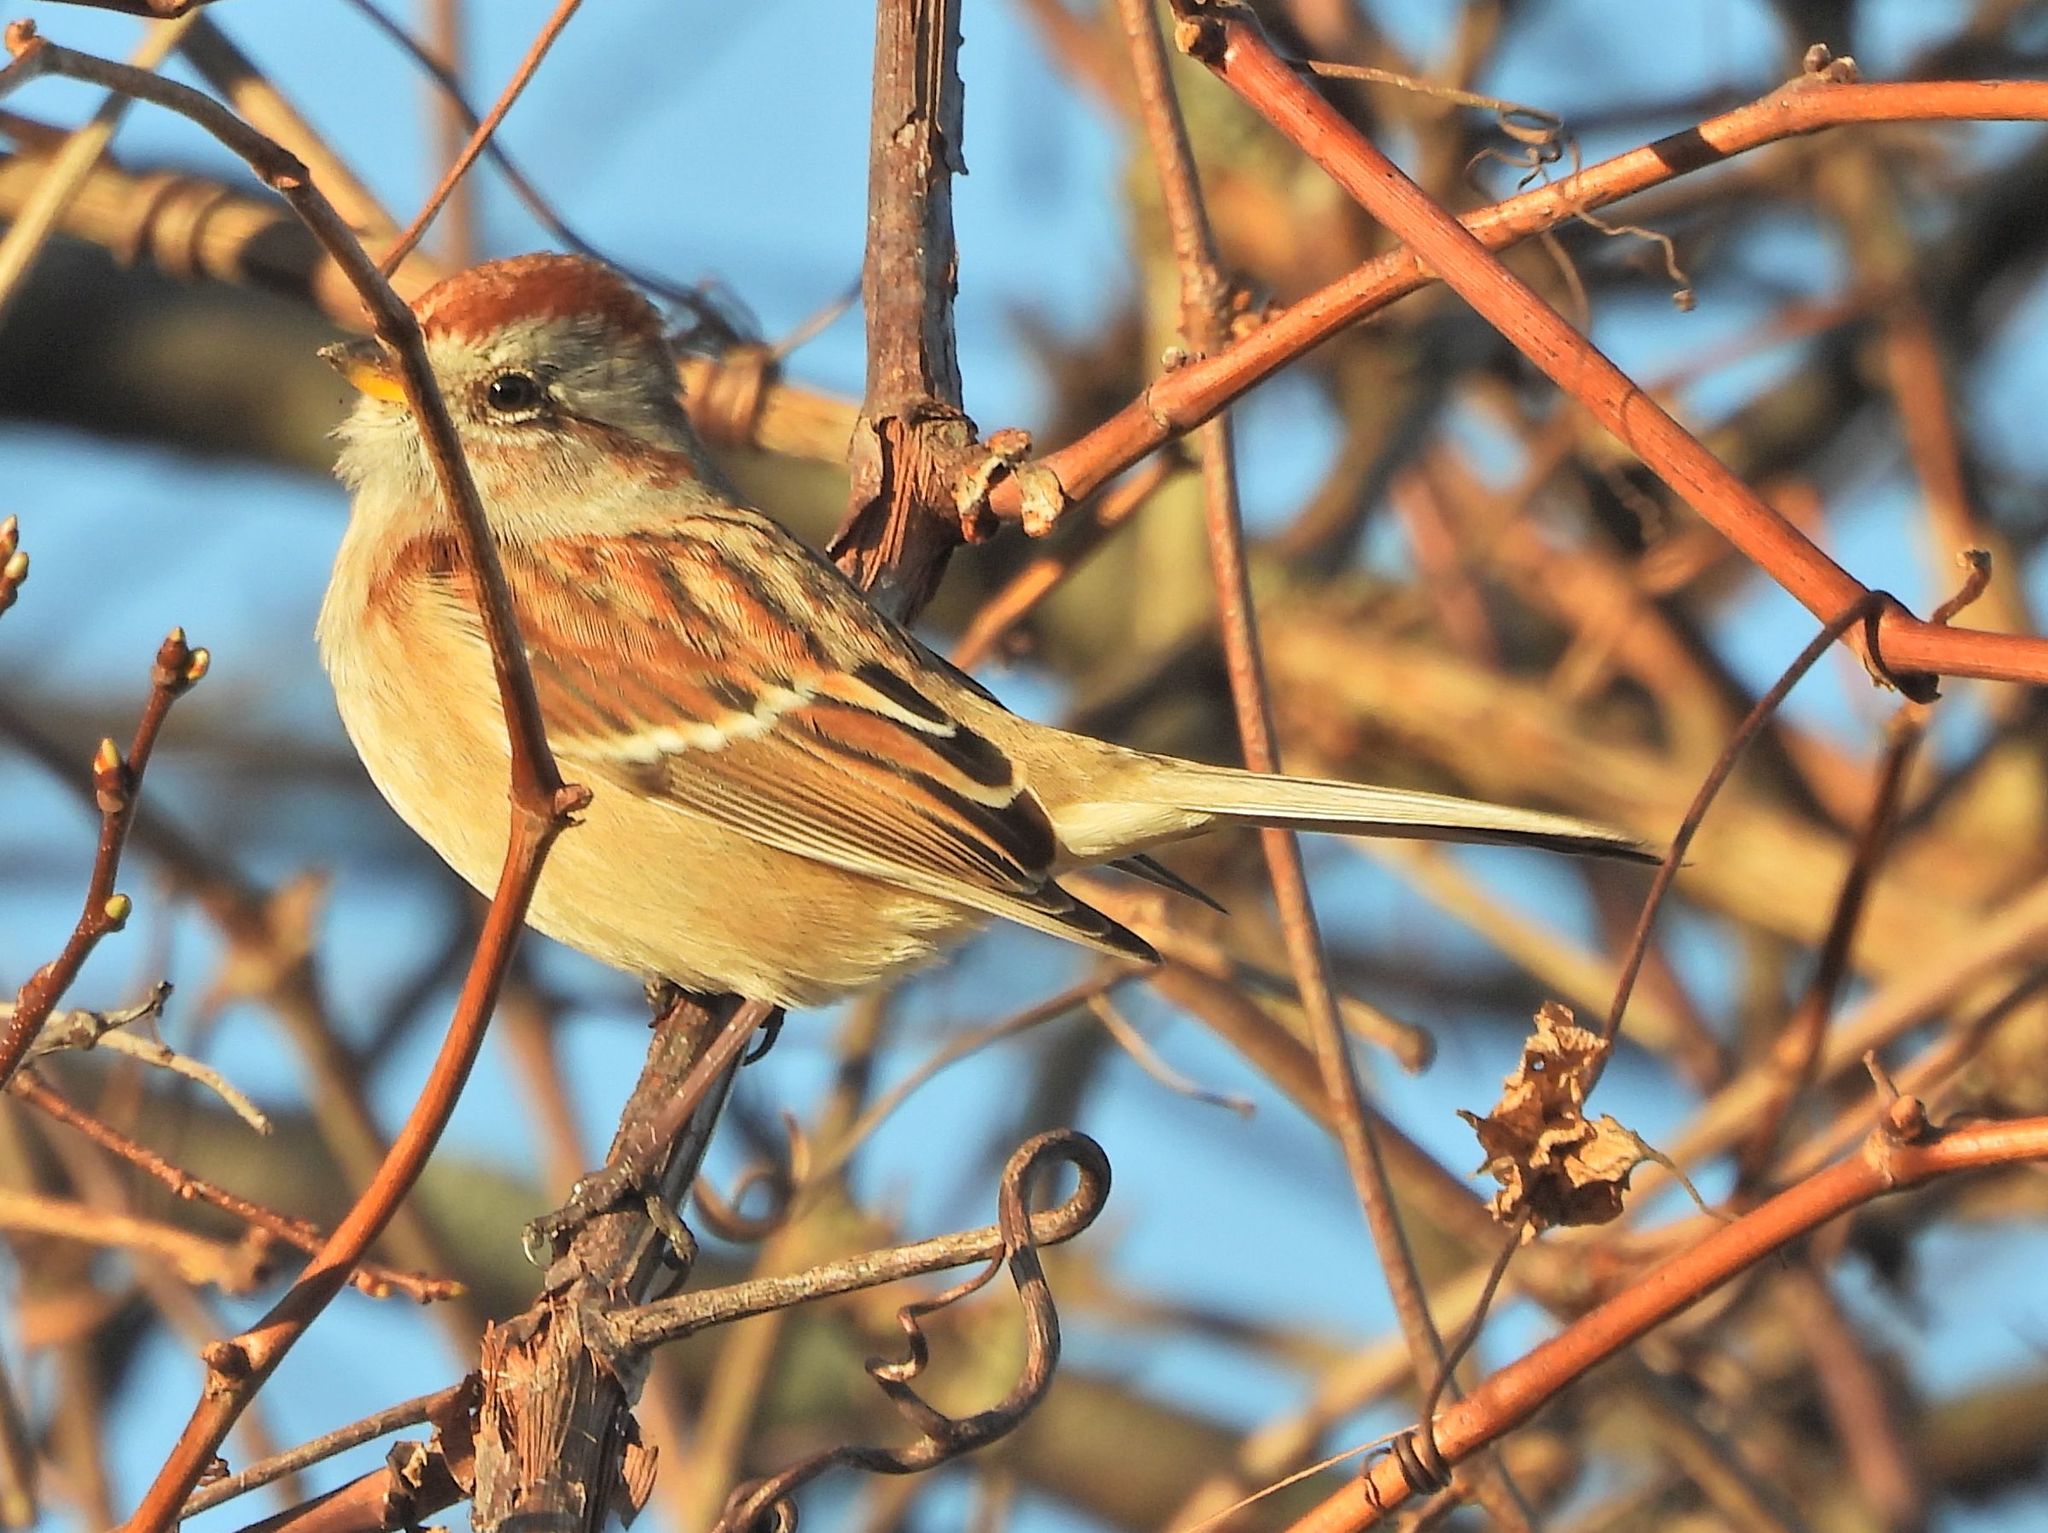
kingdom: Animalia
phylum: Chordata
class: Aves
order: Passeriformes
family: Passerellidae
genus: Spizelloides
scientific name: Spizelloides arborea
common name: American tree sparrow
